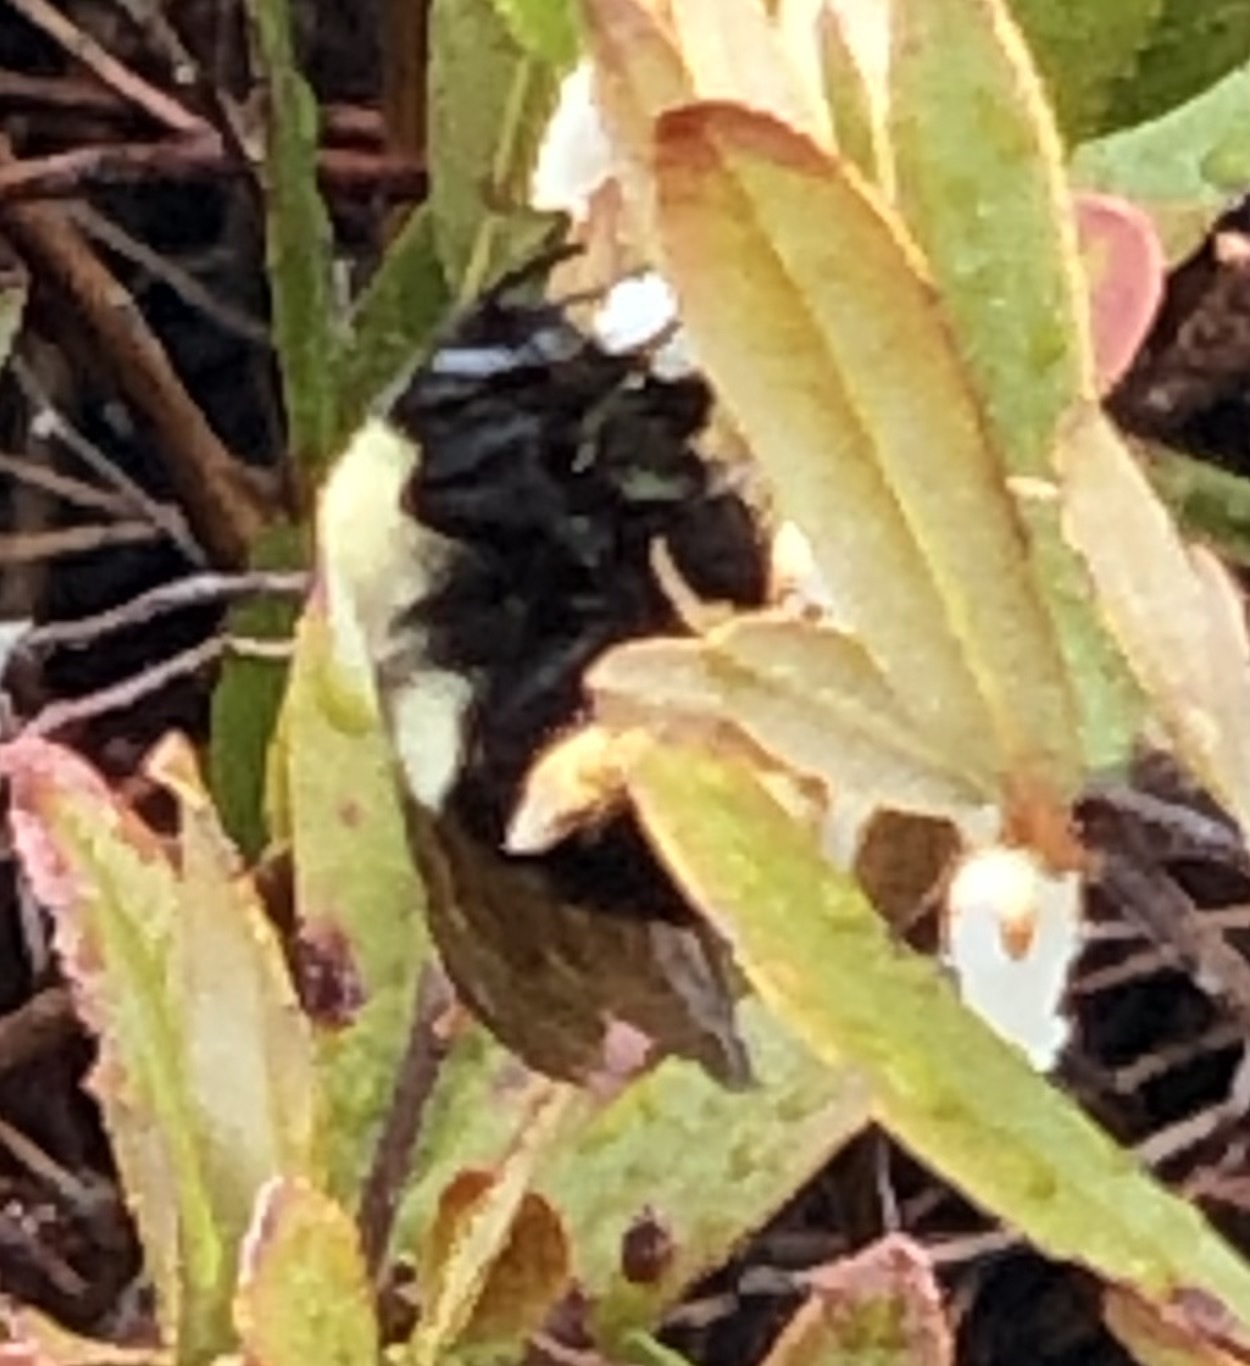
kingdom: Animalia
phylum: Arthropoda
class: Insecta
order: Hymenoptera
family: Apidae
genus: Bombus
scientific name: Bombus bimaculatus
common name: Two-spotted bumble bee
